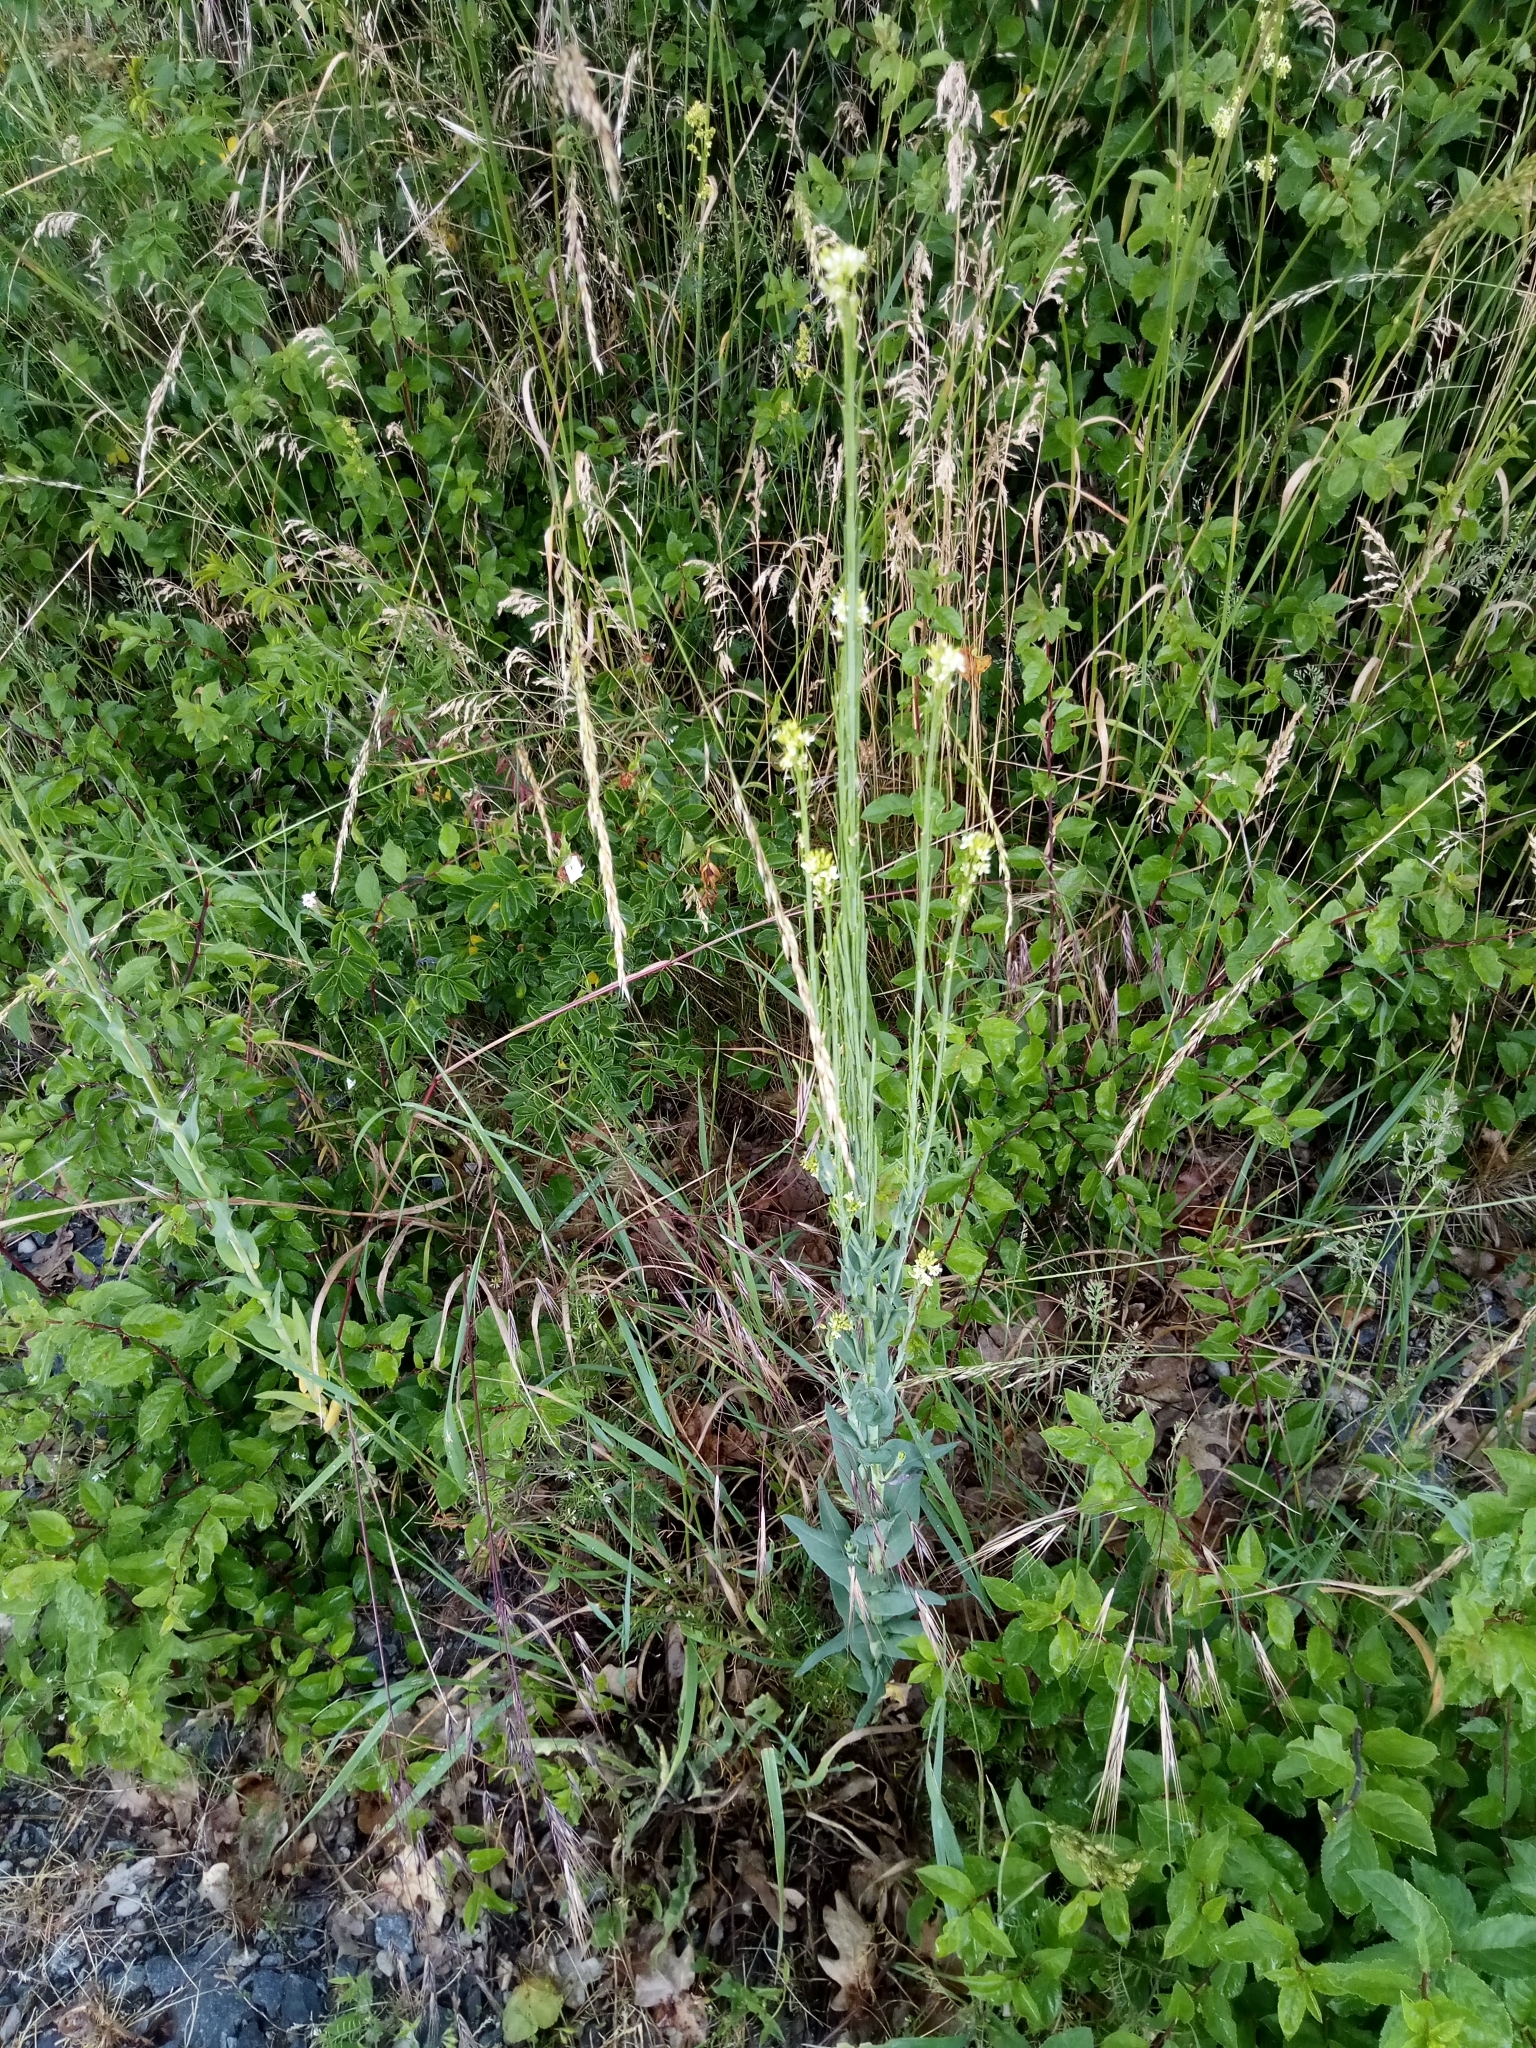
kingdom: Plantae
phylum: Tracheophyta
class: Magnoliopsida
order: Brassicales
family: Brassicaceae
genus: Turritis
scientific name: Turritis glabra
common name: Tower rockcress
